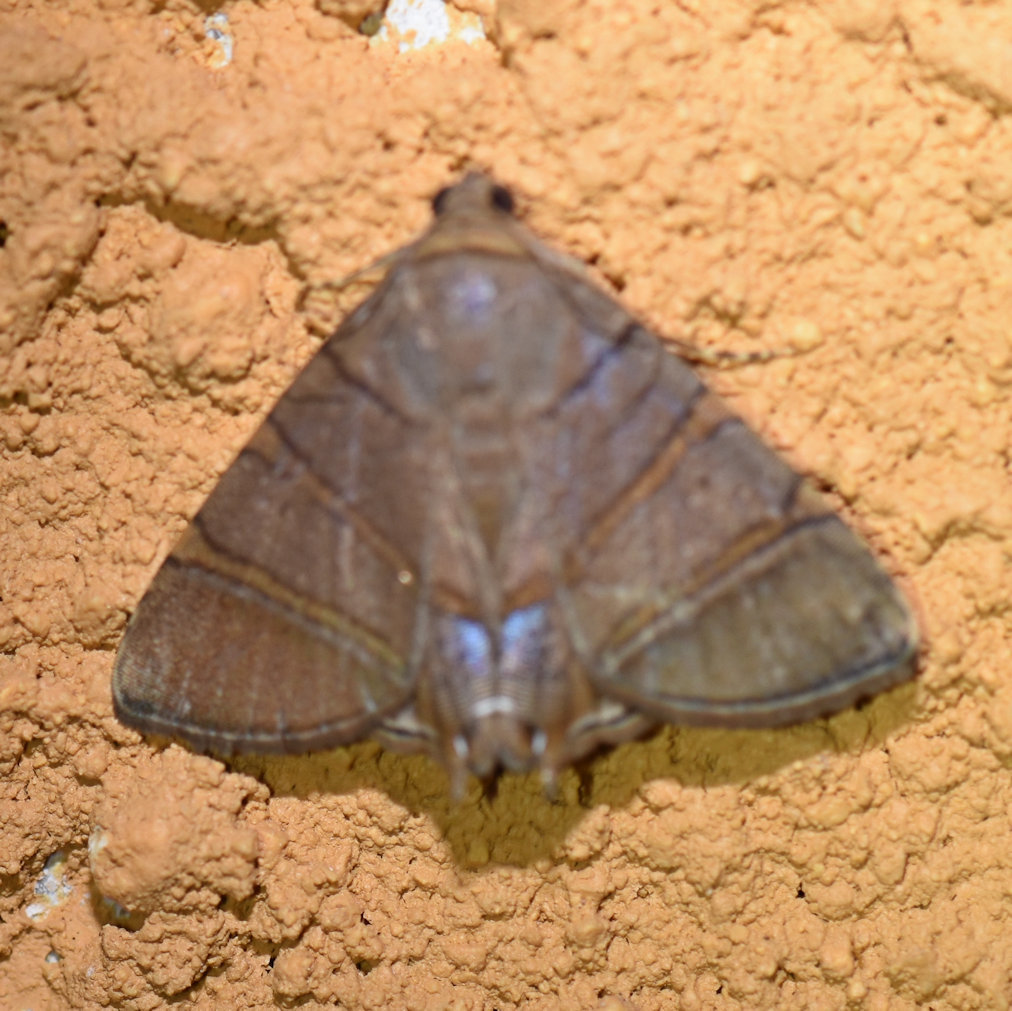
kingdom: Animalia
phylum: Arthropoda
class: Insecta
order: Lepidoptera
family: Erebidae
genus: Eulepidotis
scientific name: Eulepidotis addens
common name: Eulepidotis moth
